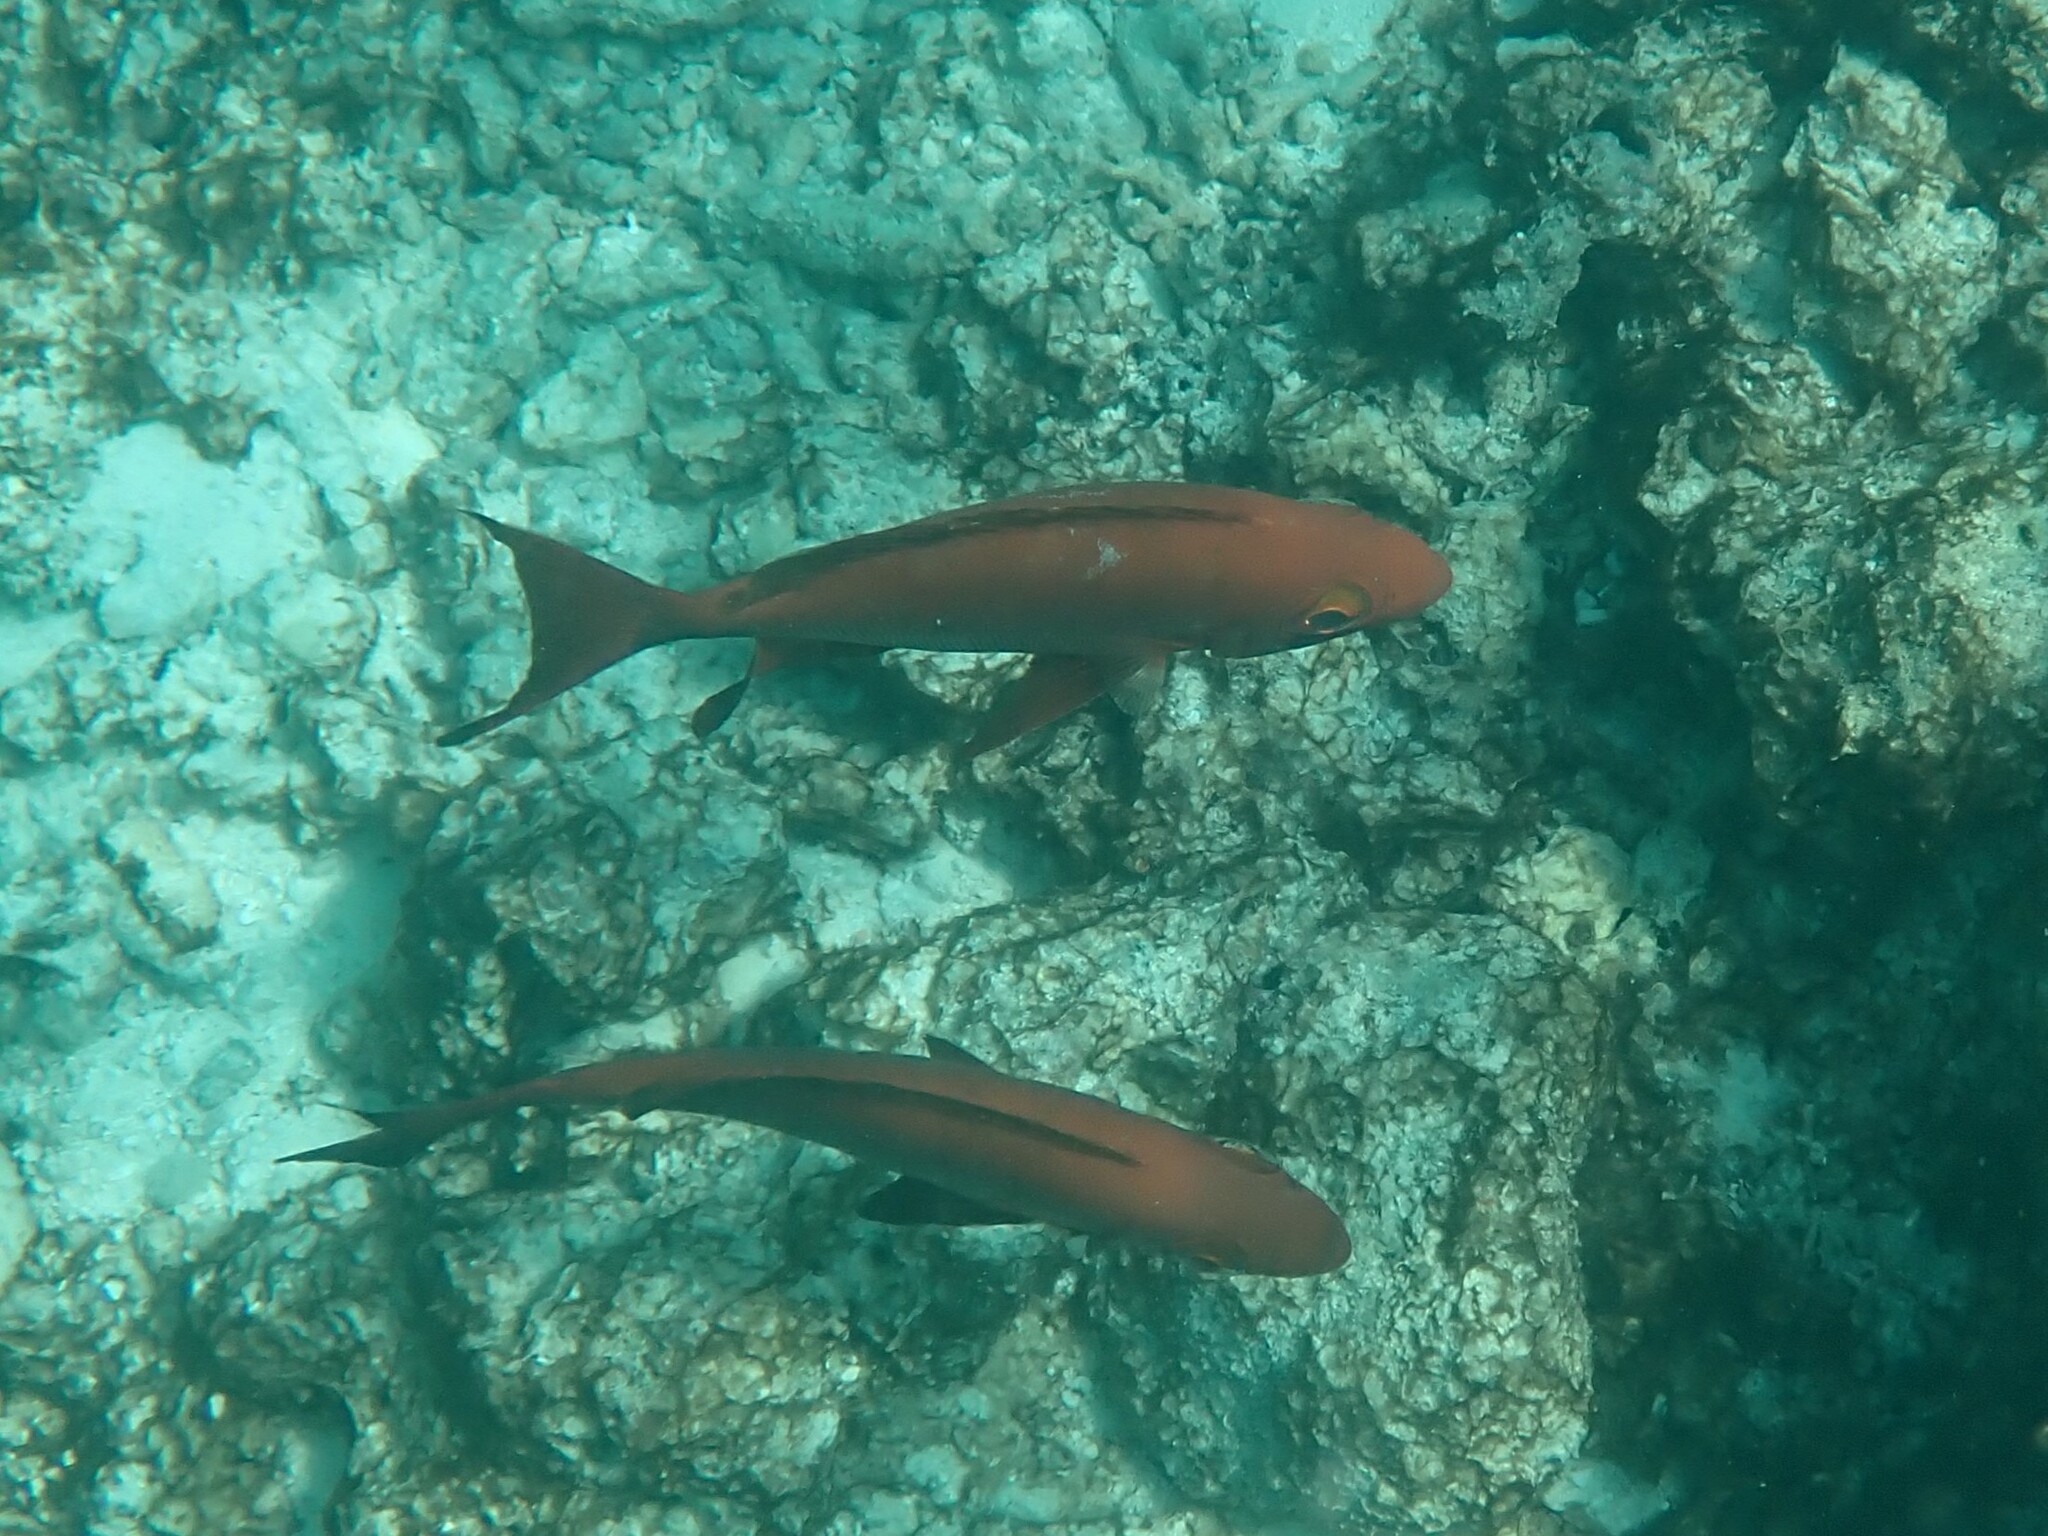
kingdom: Animalia
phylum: Chordata
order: Perciformes
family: Priacanthidae
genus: Priacanthus
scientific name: Priacanthus hamrur
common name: Moontail bullseye
